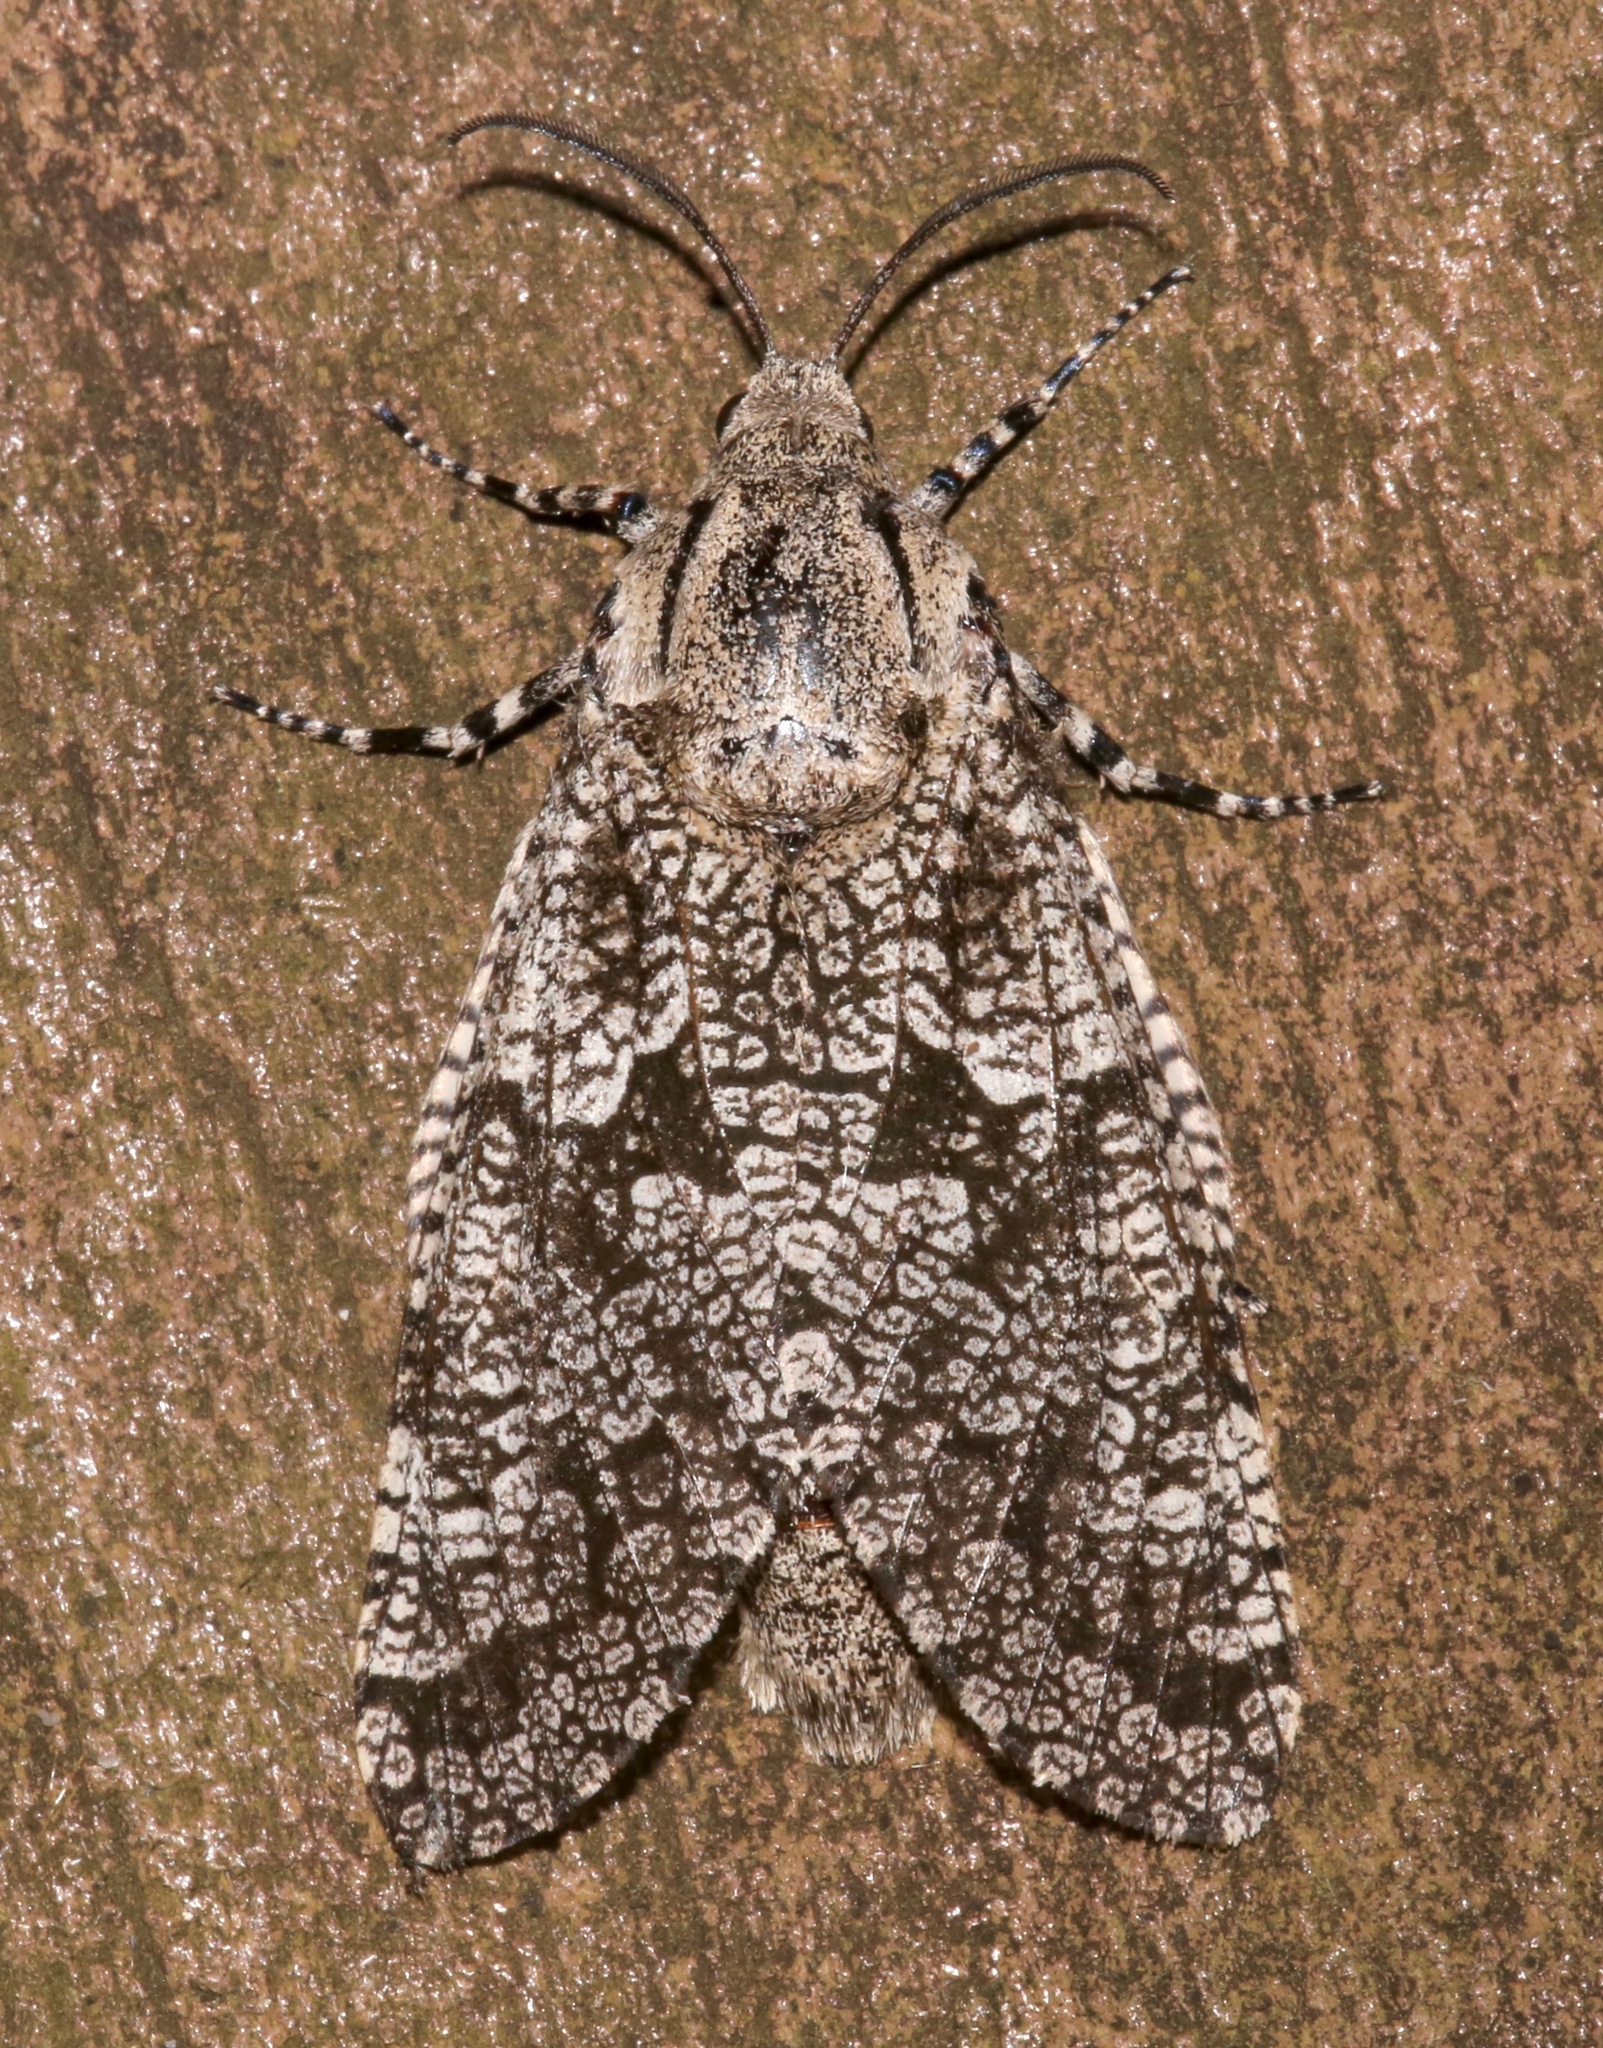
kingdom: Animalia
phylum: Arthropoda
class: Insecta
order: Lepidoptera
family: Cossidae
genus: Prionoxystus
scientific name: Prionoxystus robiniae
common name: Carpenterworm
